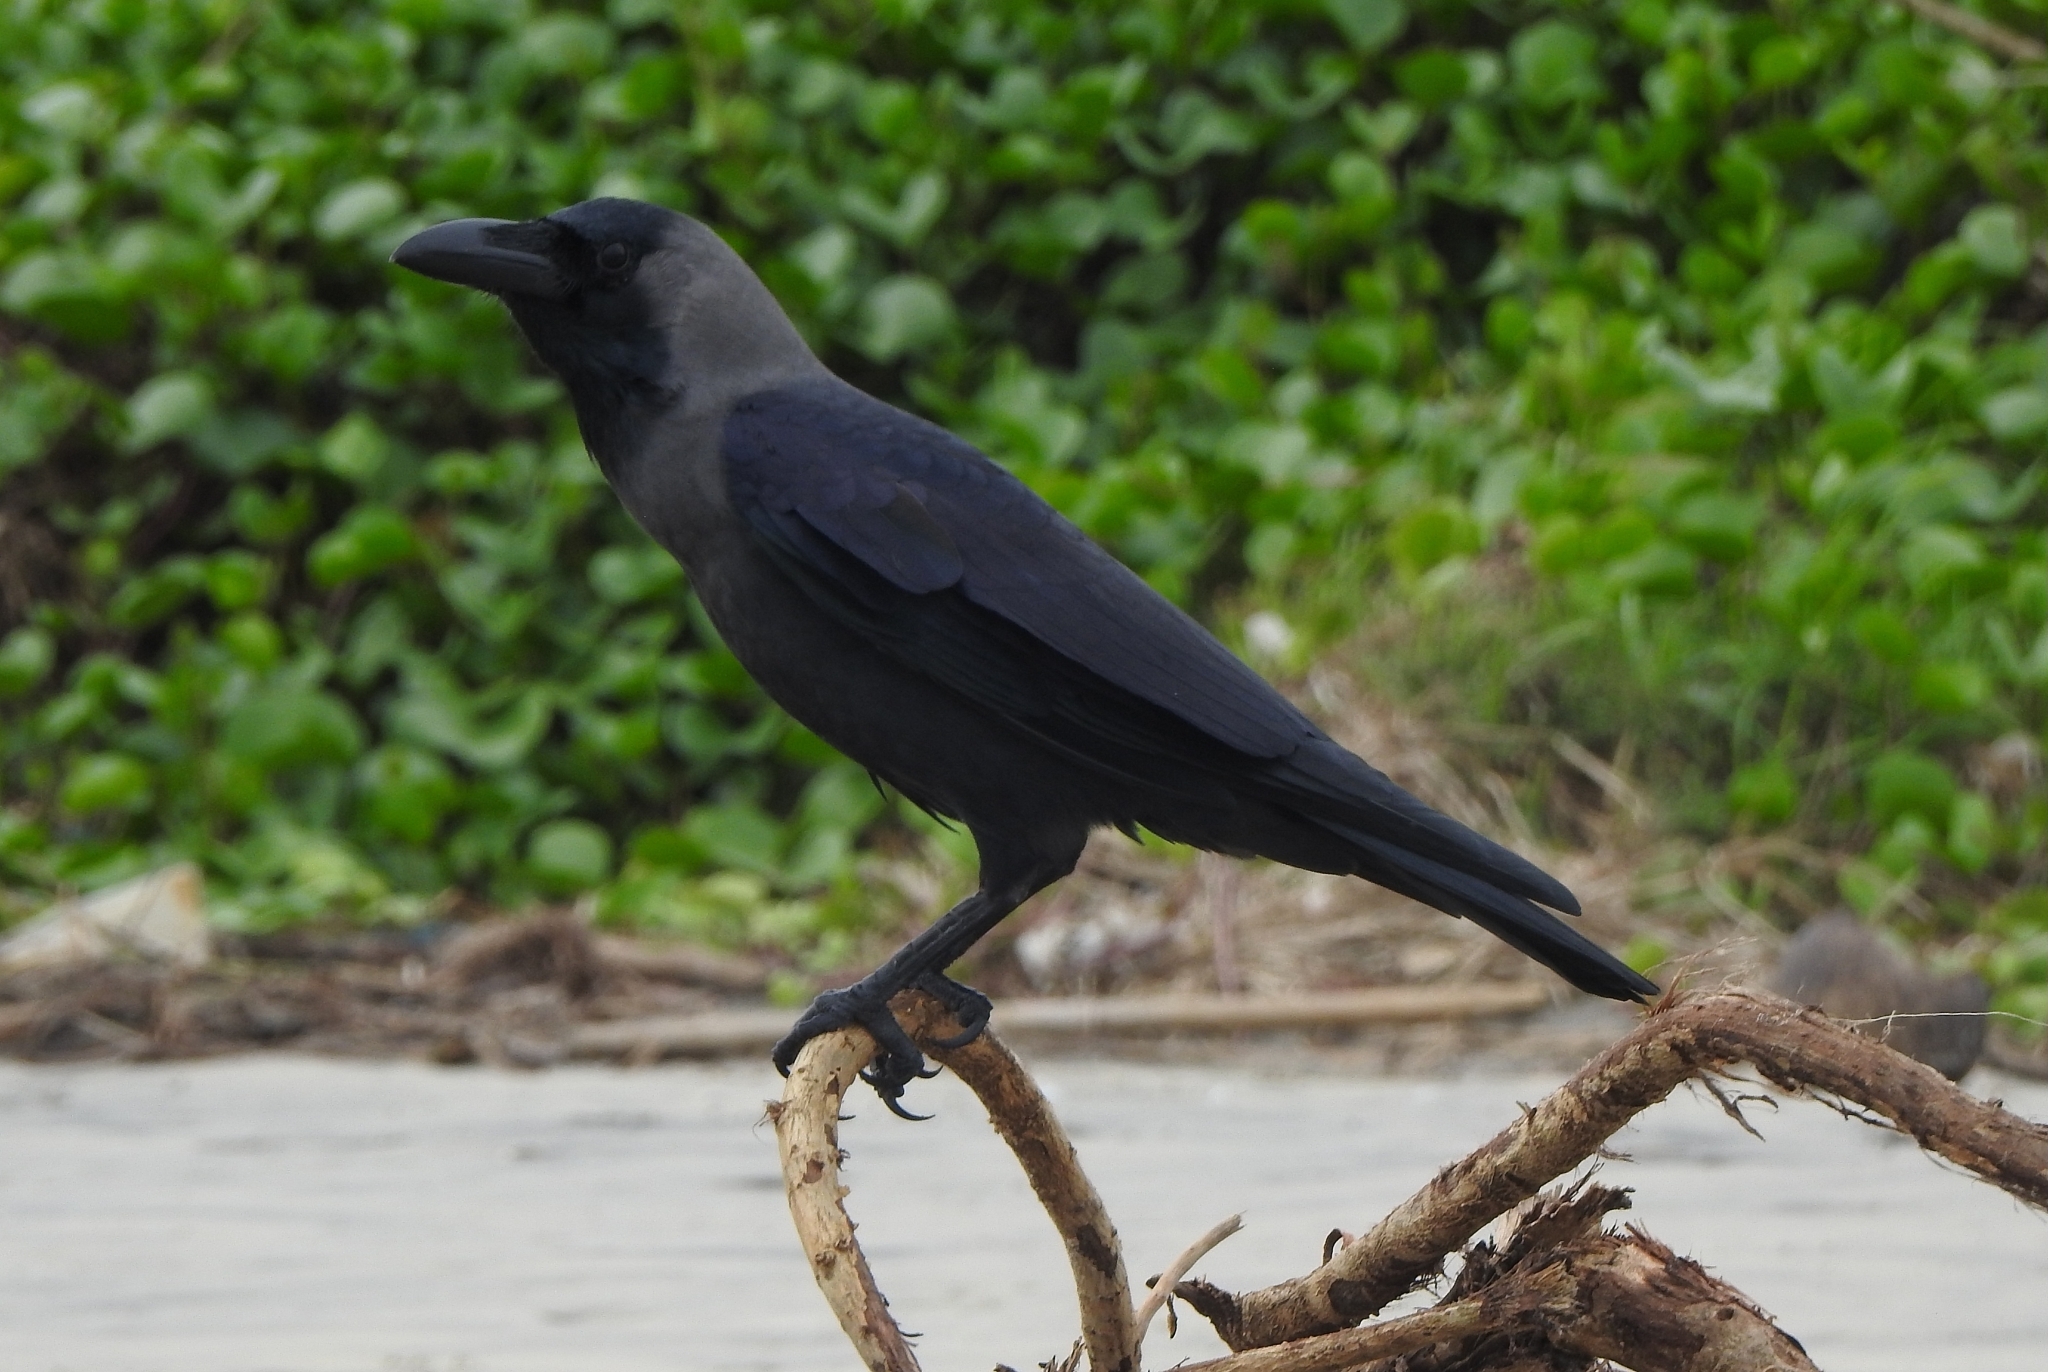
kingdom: Animalia
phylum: Chordata
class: Aves
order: Passeriformes
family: Corvidae
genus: Corvus
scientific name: Corvus splendens
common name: House crow
